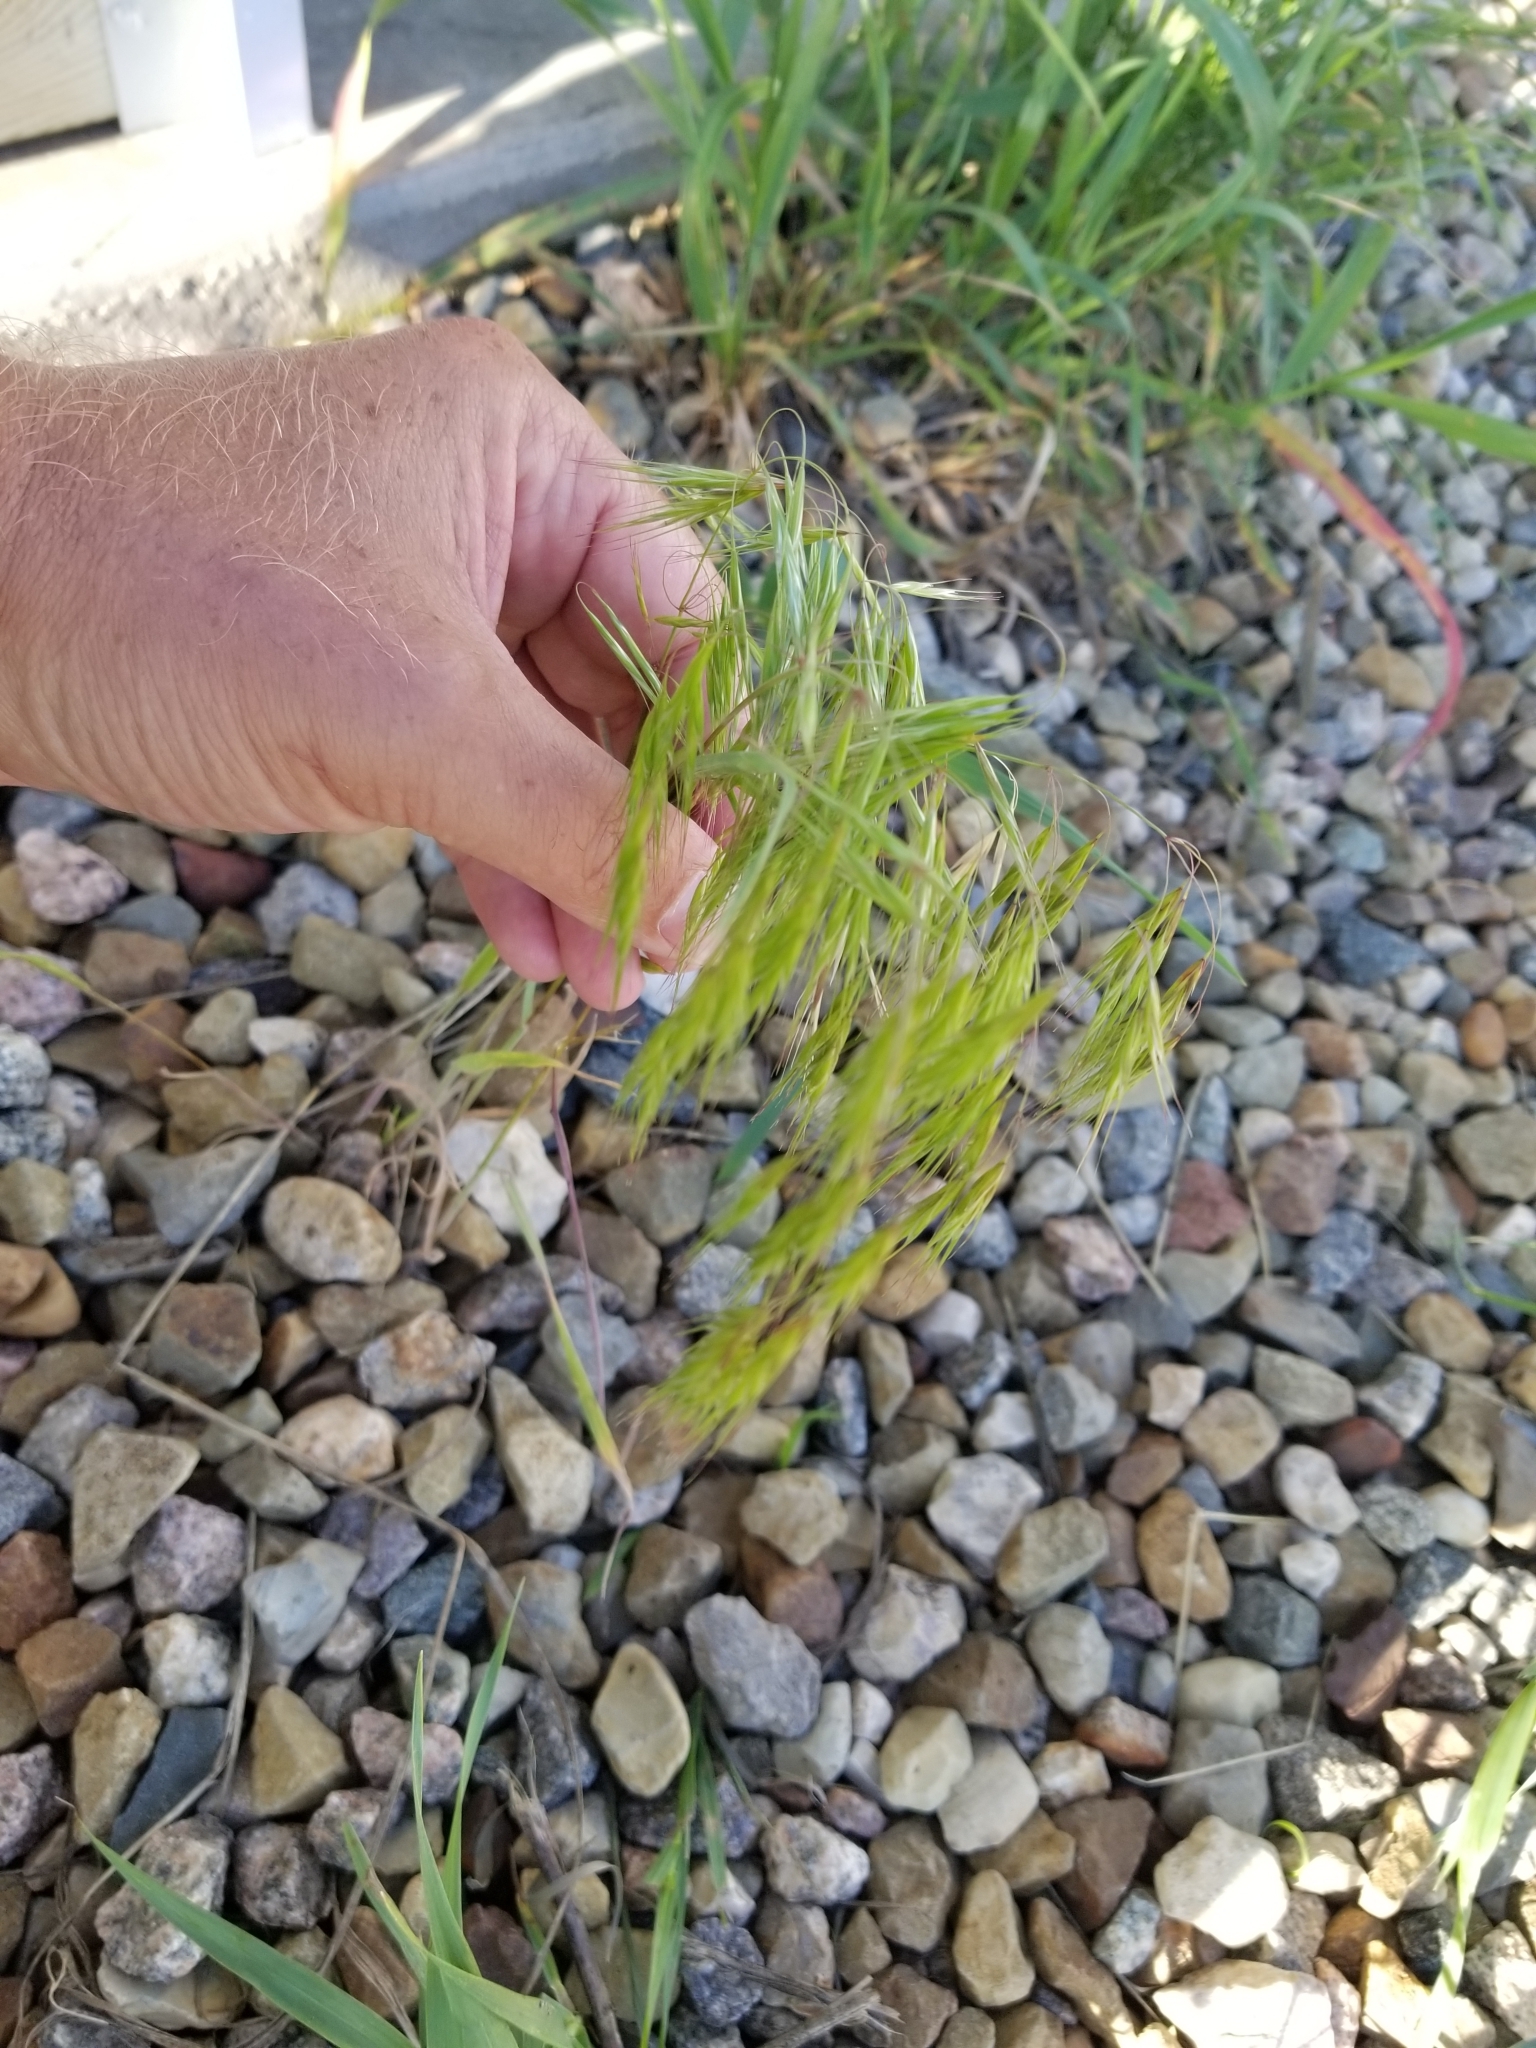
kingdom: Plantae
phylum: Tracheophyta
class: Liliopsida
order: Poales
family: Poaceae
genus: Bromus
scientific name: Bromus tectorum
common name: Cheatgrass
